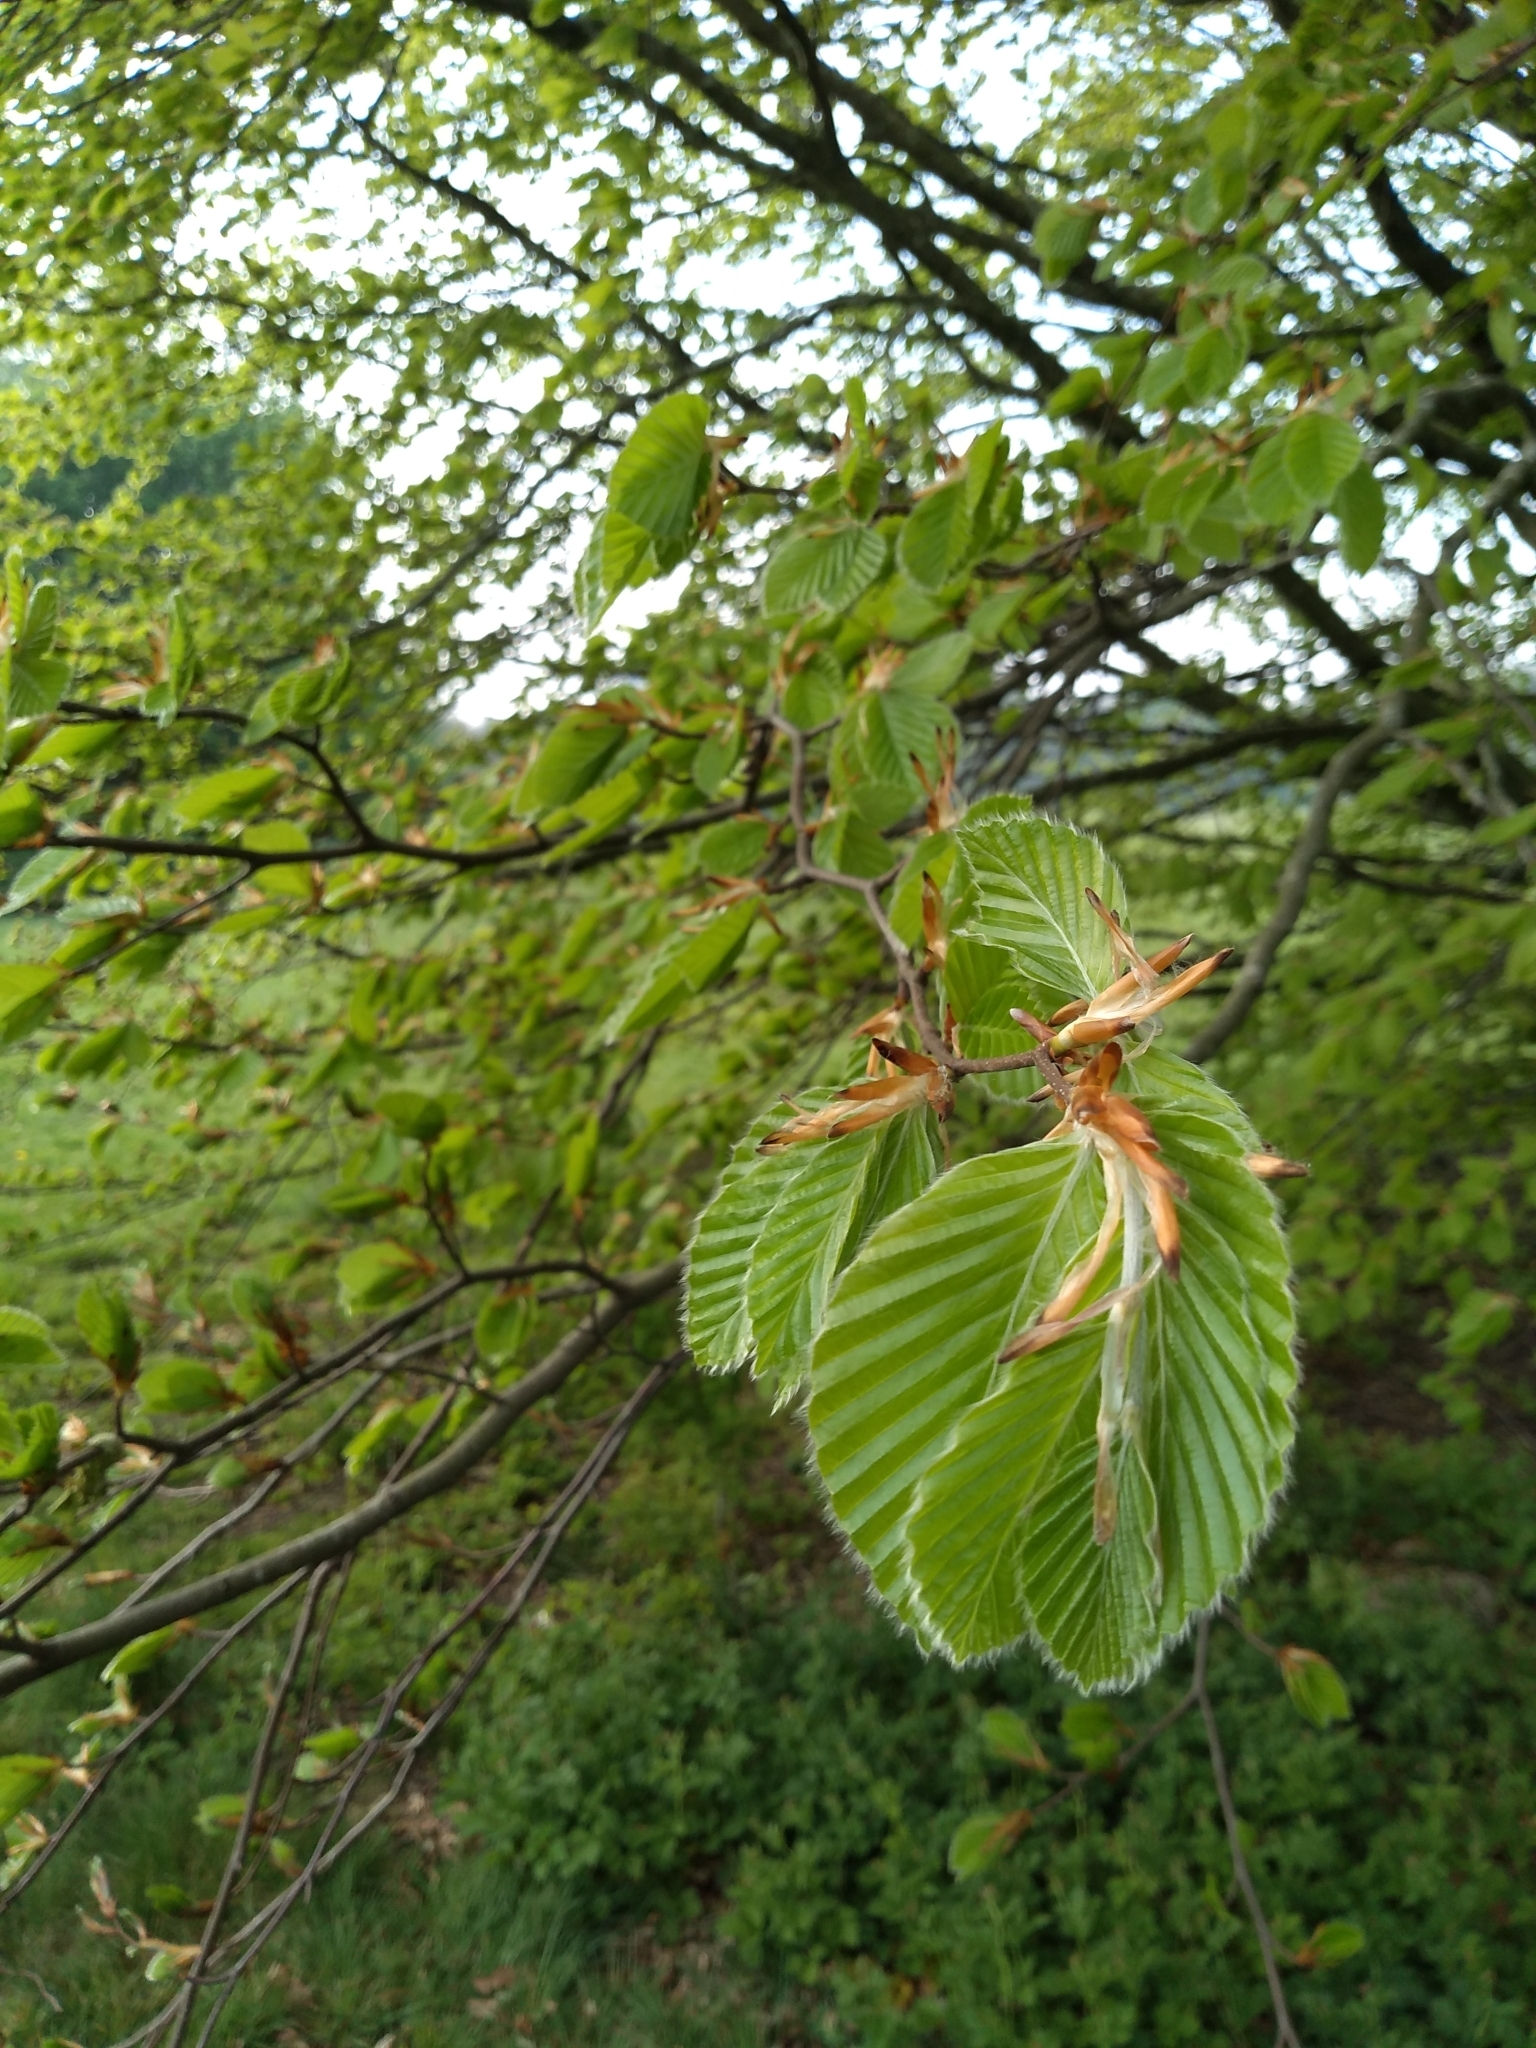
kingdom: Plantae
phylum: Tracheophyta
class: Magnoliopsida
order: Fagales
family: Fagaceae
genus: Fagus
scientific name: Fagus sylvatica
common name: Beech
